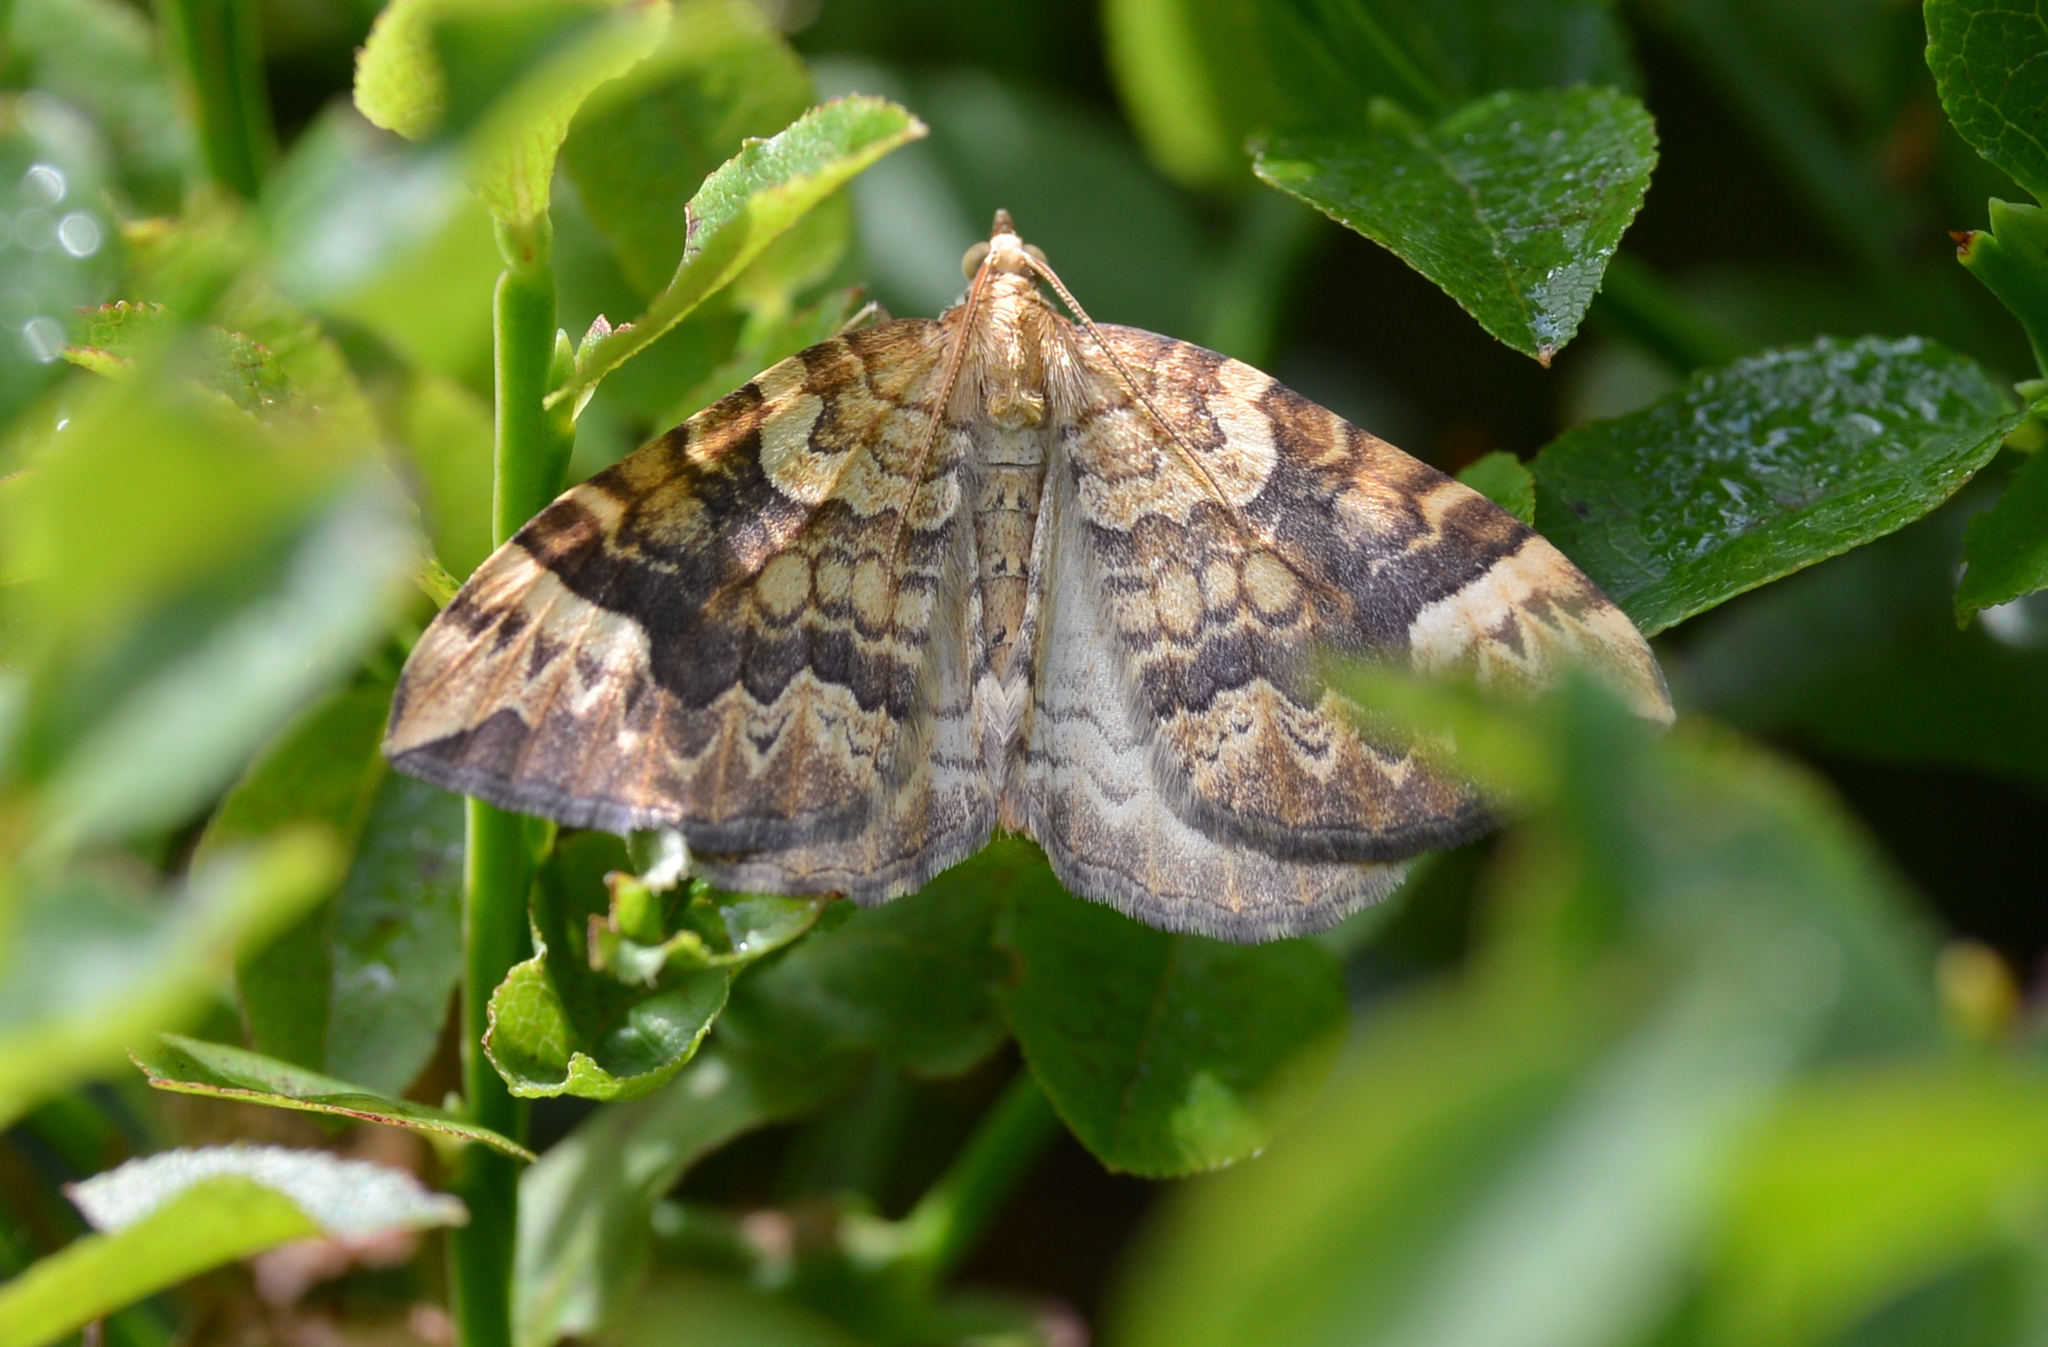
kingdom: Animalia
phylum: Arthropoda
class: Insecta
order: Lepidoptera
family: Geometridae
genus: Eulithis
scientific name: Eulithis populata
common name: Northern spinach
